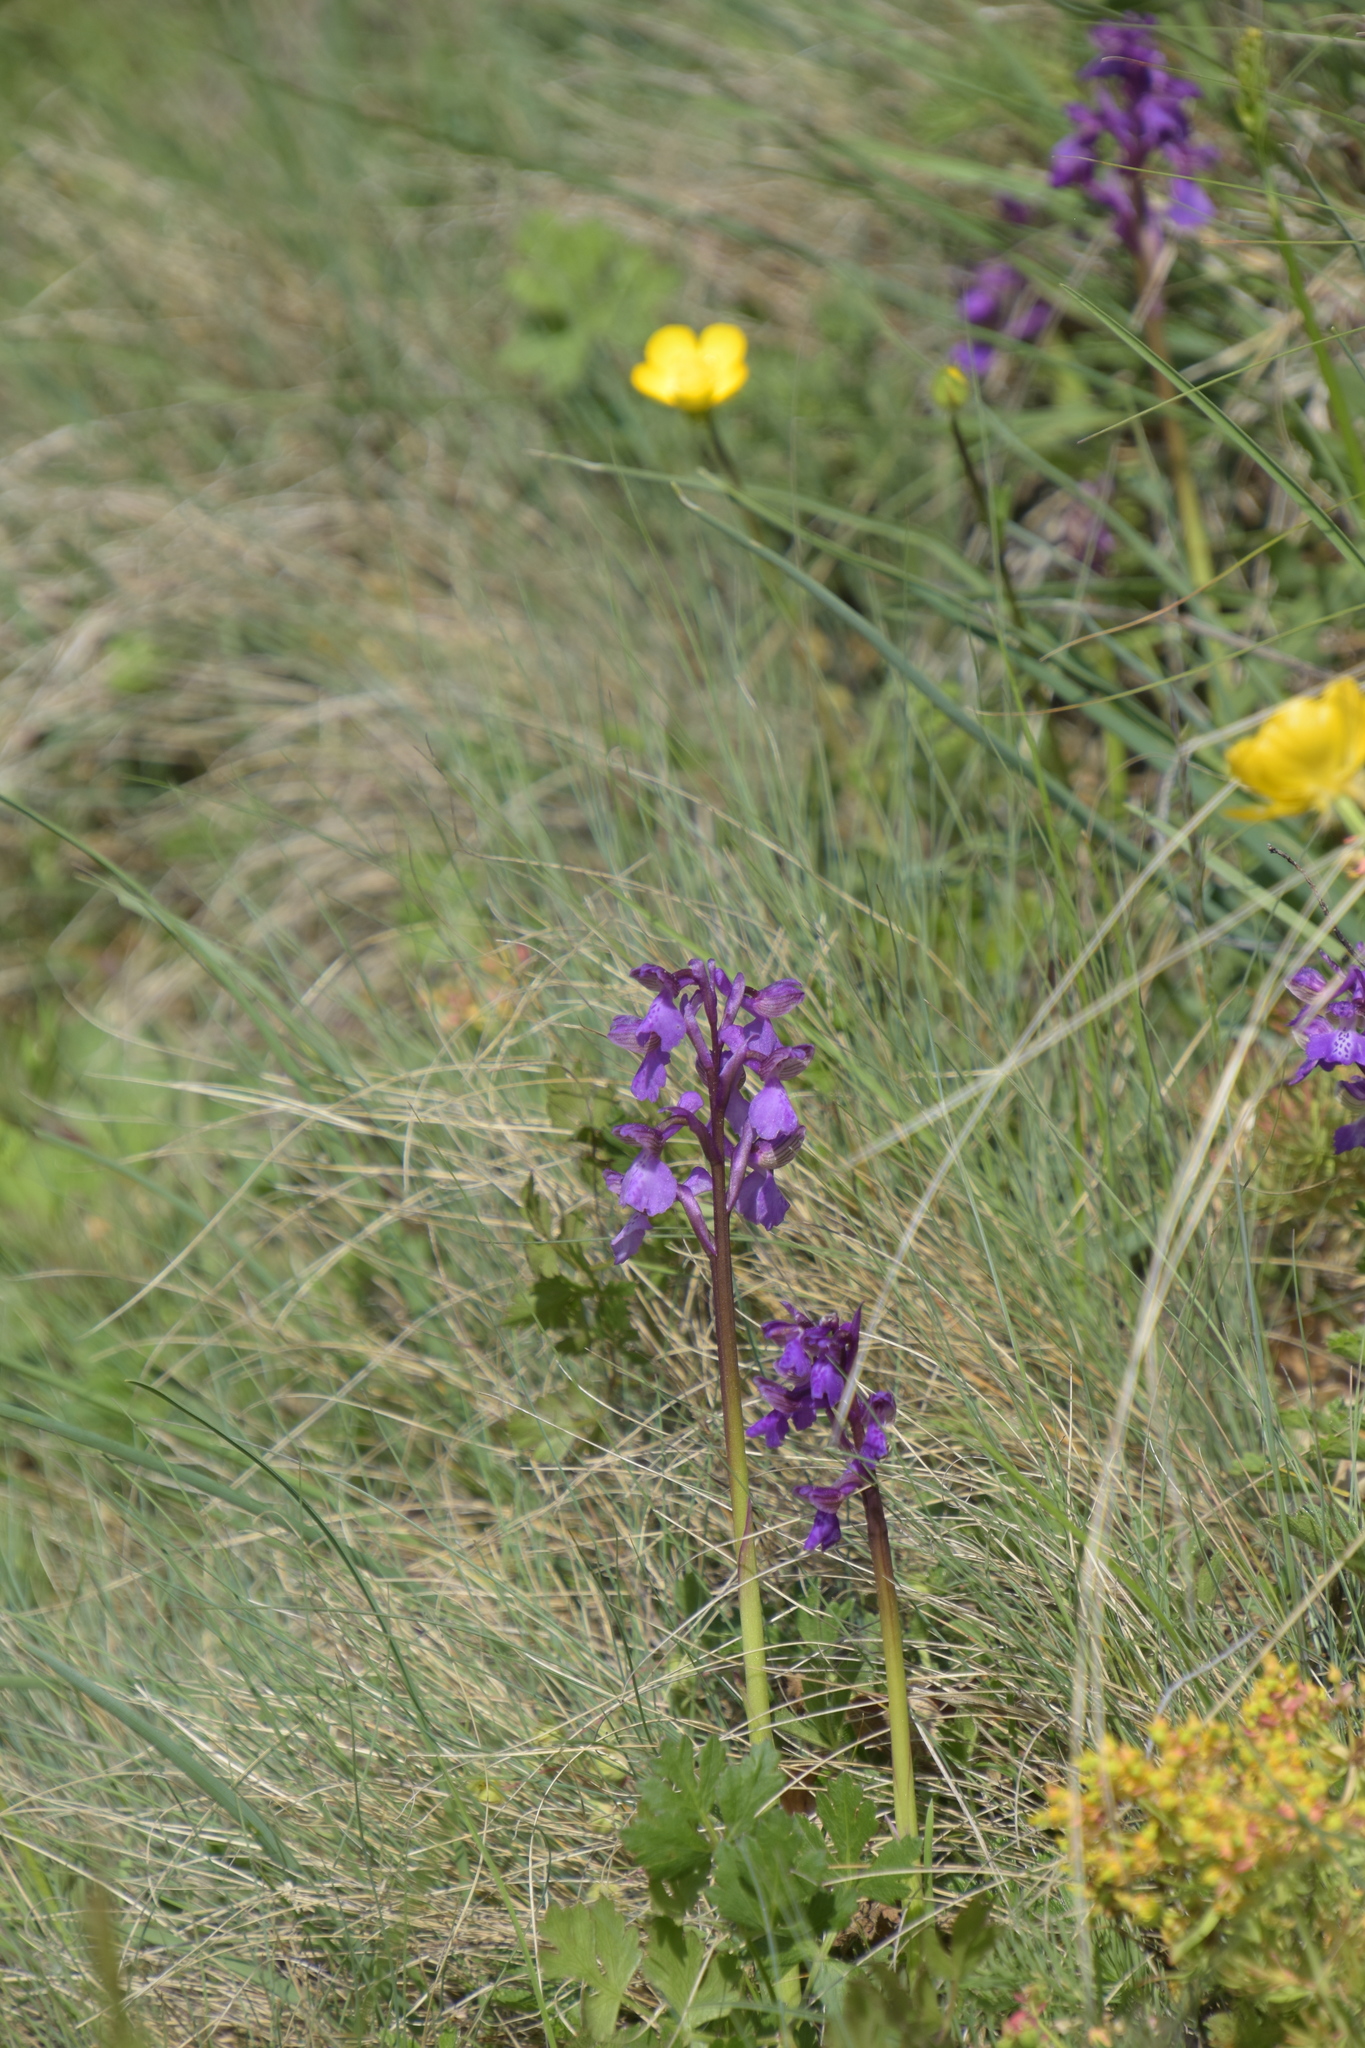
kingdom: Plantae
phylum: Tracheophyta
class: Liliopsida
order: Asparagales
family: Orchidaceae
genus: Anacamptis
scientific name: Anacamptis morio
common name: Green-winged orchid
